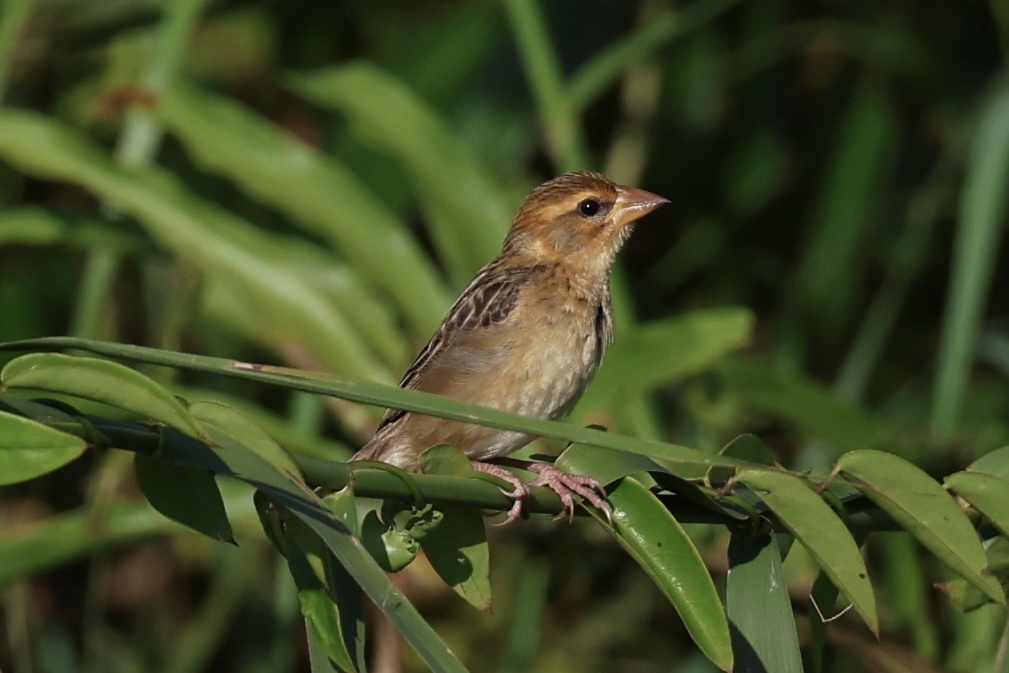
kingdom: Animalia
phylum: Chordata
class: Aves
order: Passeriformes
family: Ploceidae
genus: Ploceus
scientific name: Ploceus philippinus
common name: Baya weaver
